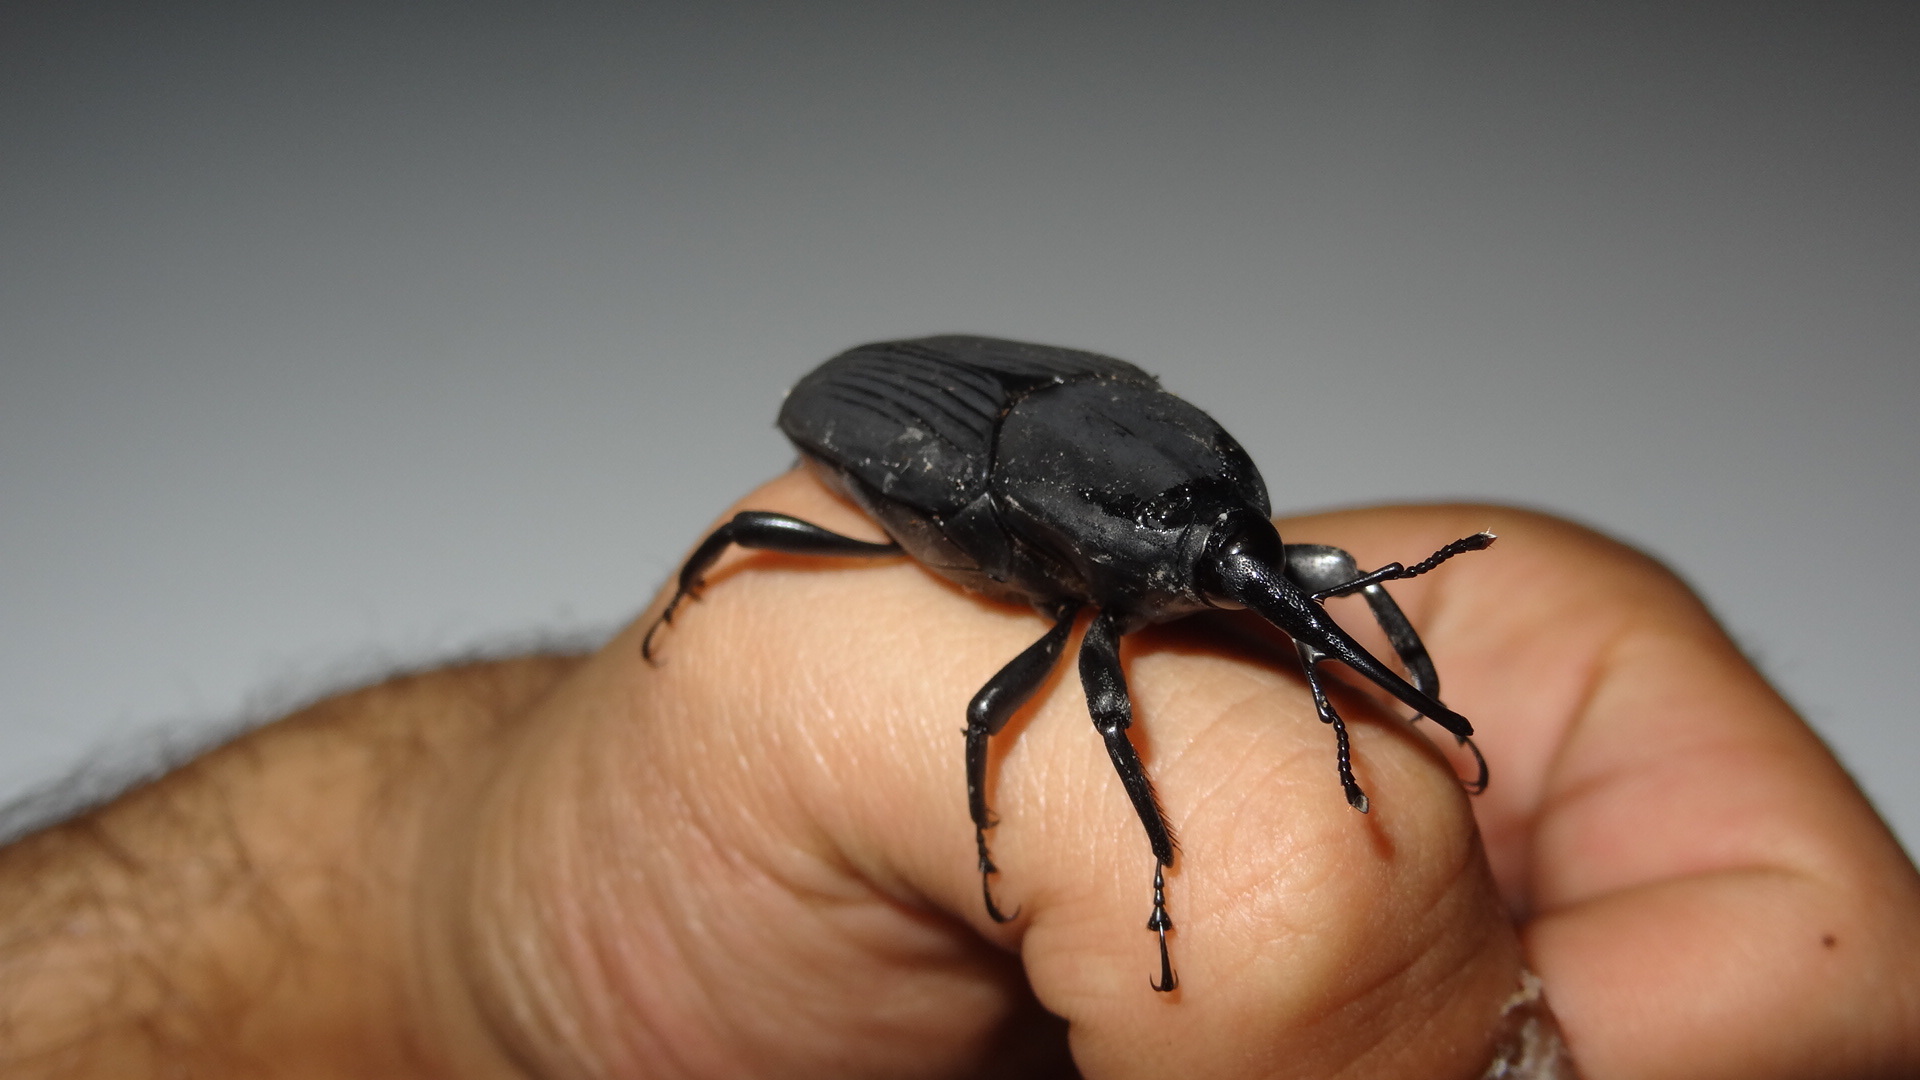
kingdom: Animalia
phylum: Arthropoda
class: Insecta
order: Coleoptera
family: Dryophthoridae
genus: Rhynchophorus
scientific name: Rhynchophorus palmarum
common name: Palm weevil
